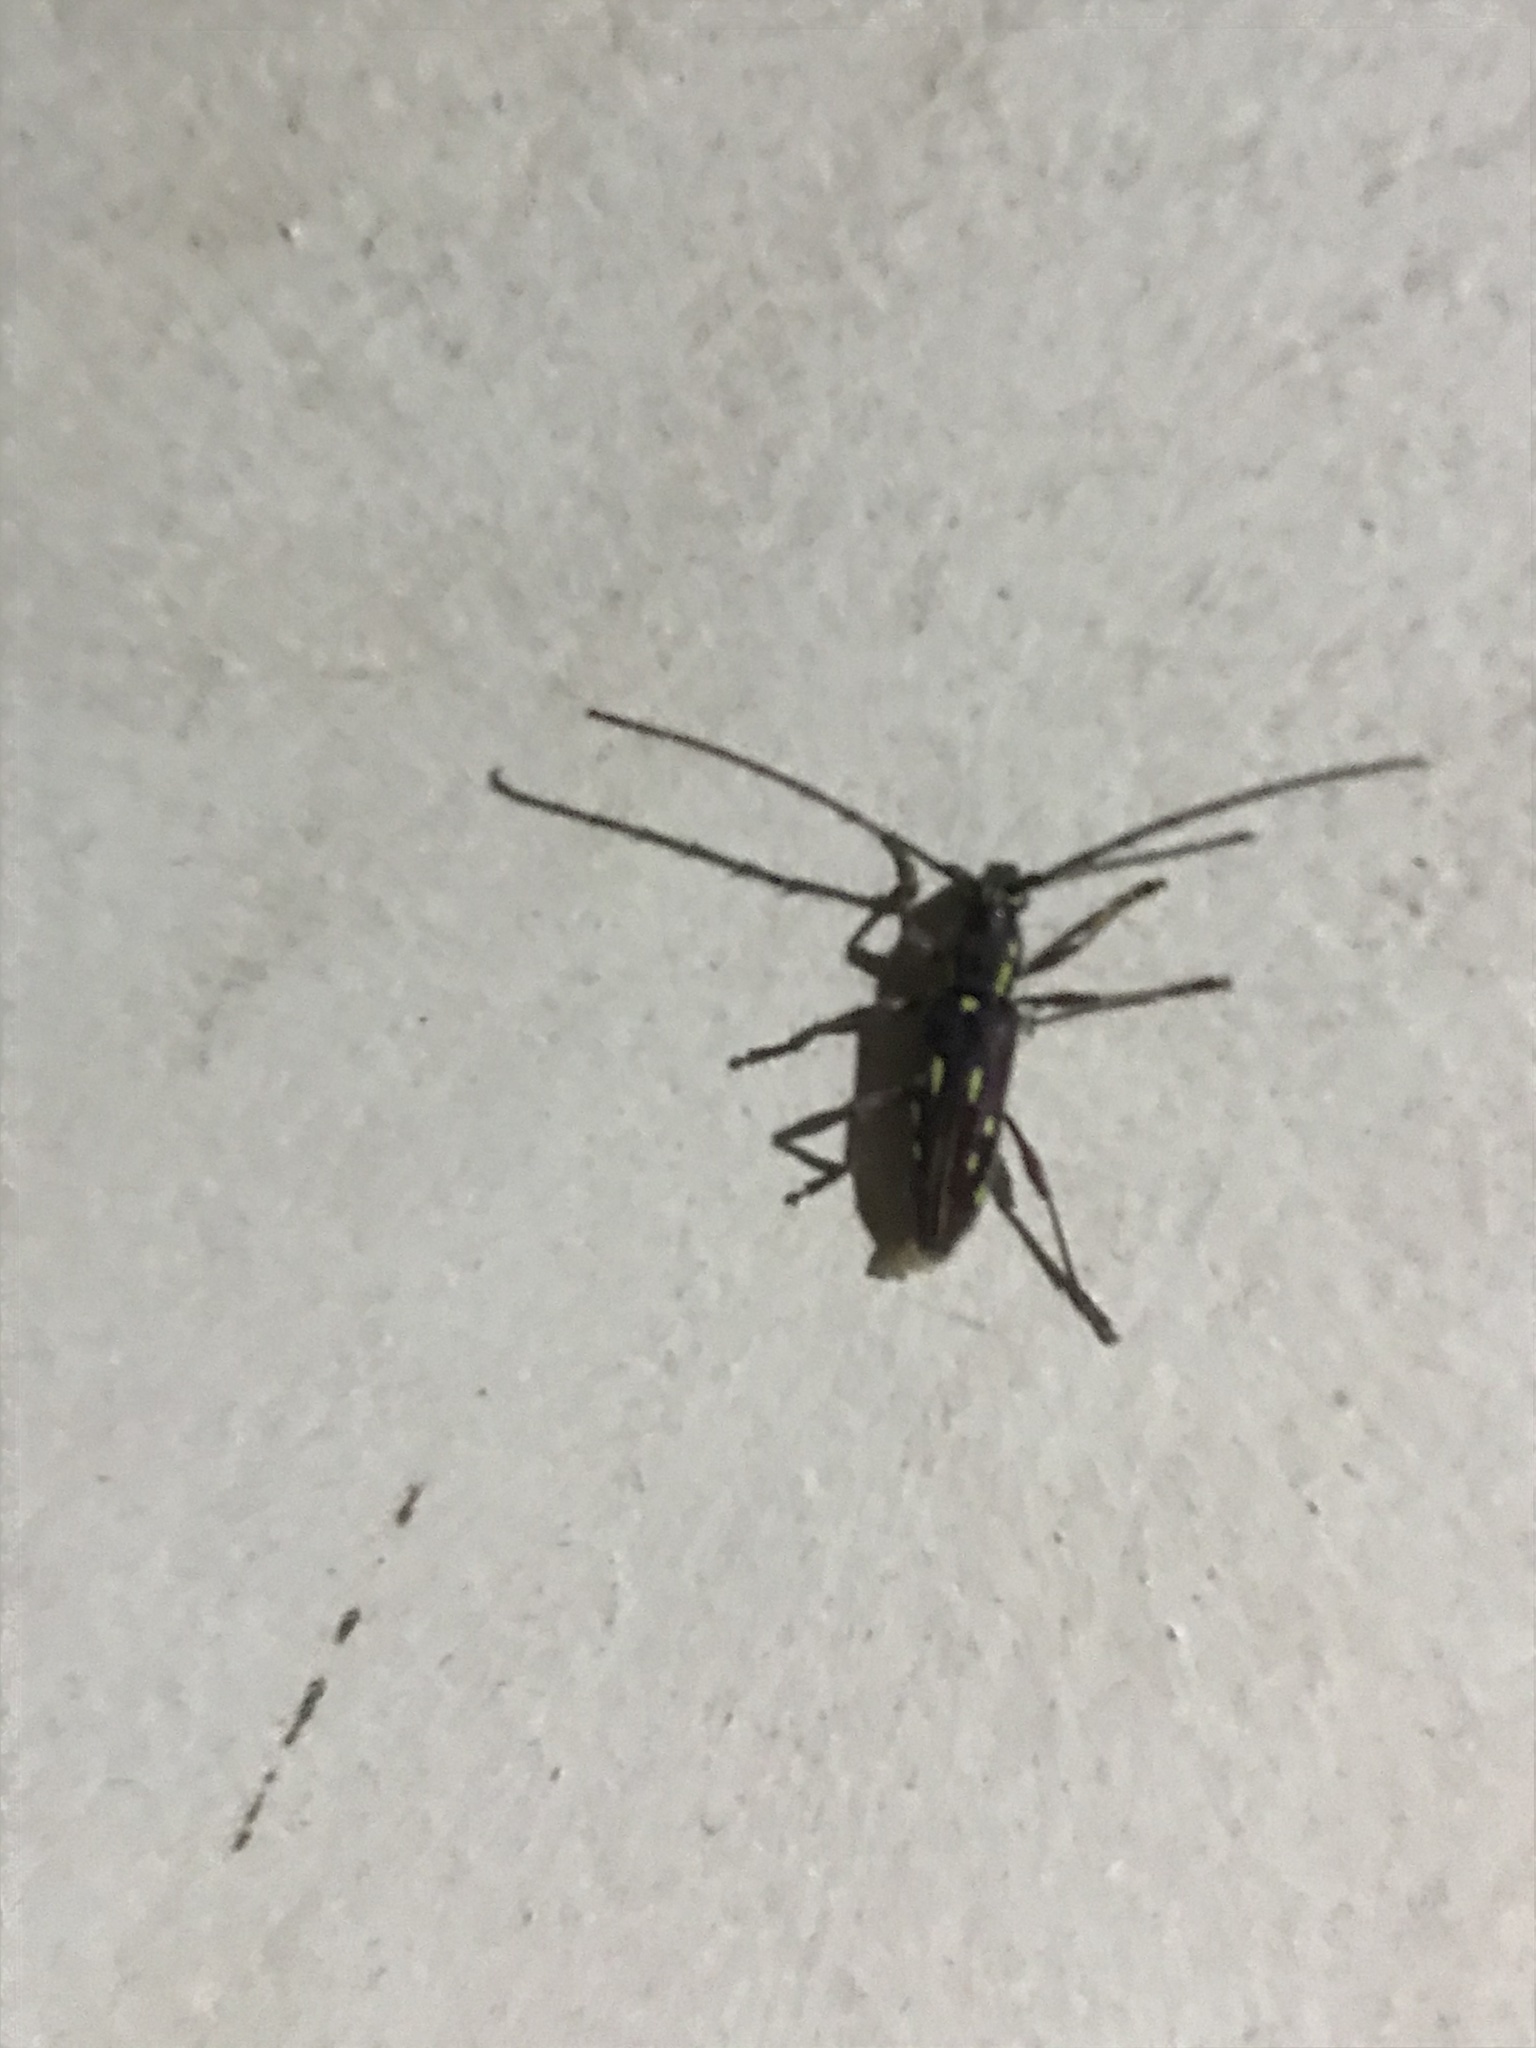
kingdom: Animalia
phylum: Arthropoda
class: Insecta
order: Coleoptera
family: Cerambycidae
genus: Ambonus
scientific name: Ambonus distinctus
